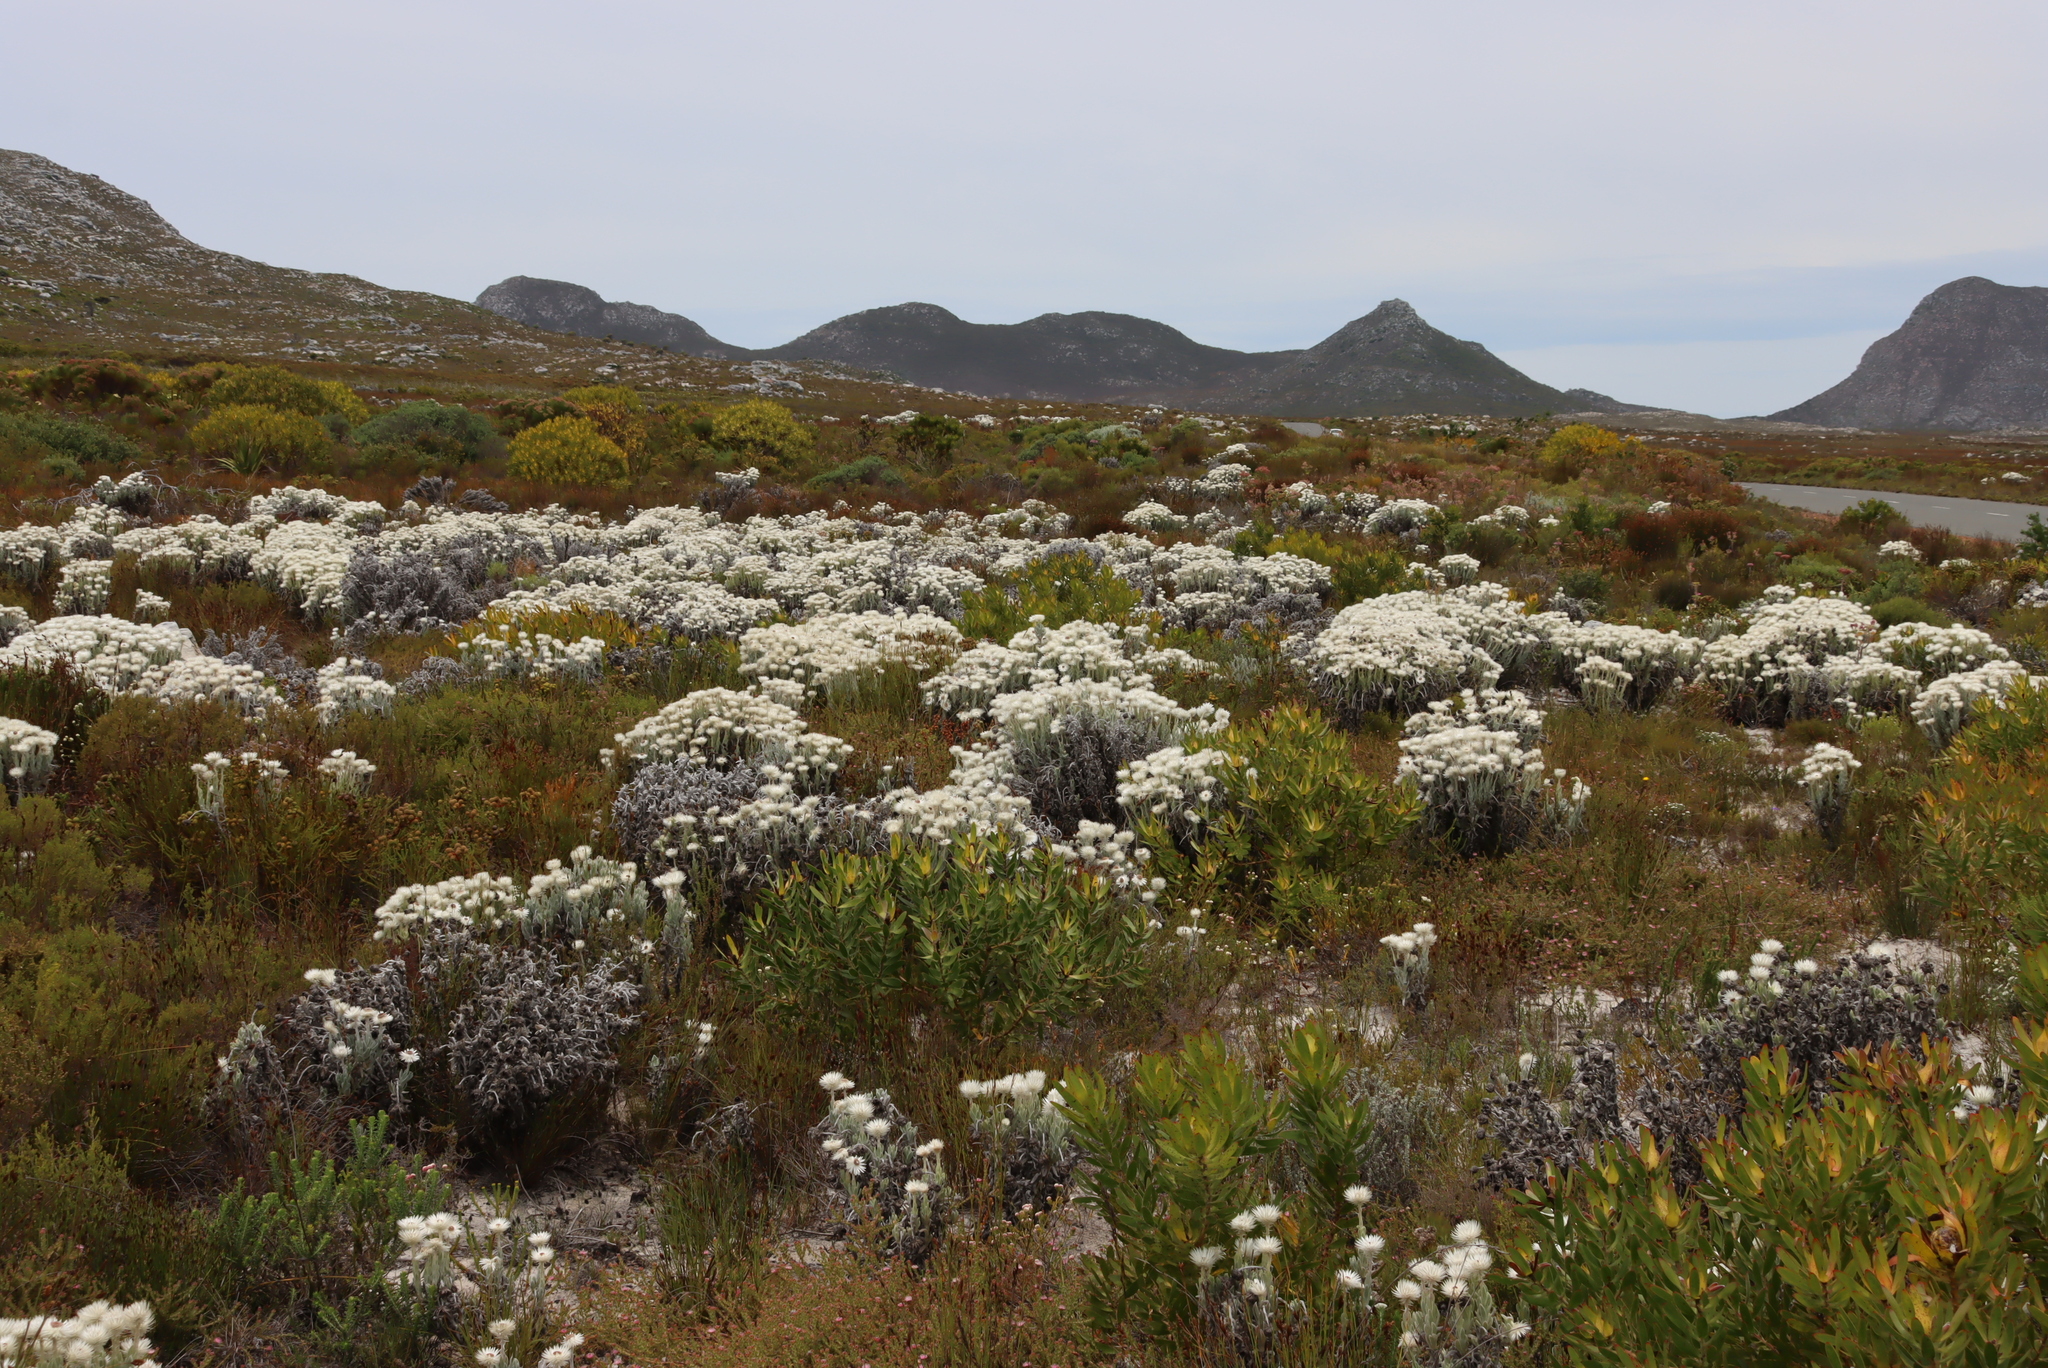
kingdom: Plantae
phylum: Tracheophyta
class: Magnoliopsida
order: Asterales
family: Asteraceae
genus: Syncarpha
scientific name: Syncarpha vestita
